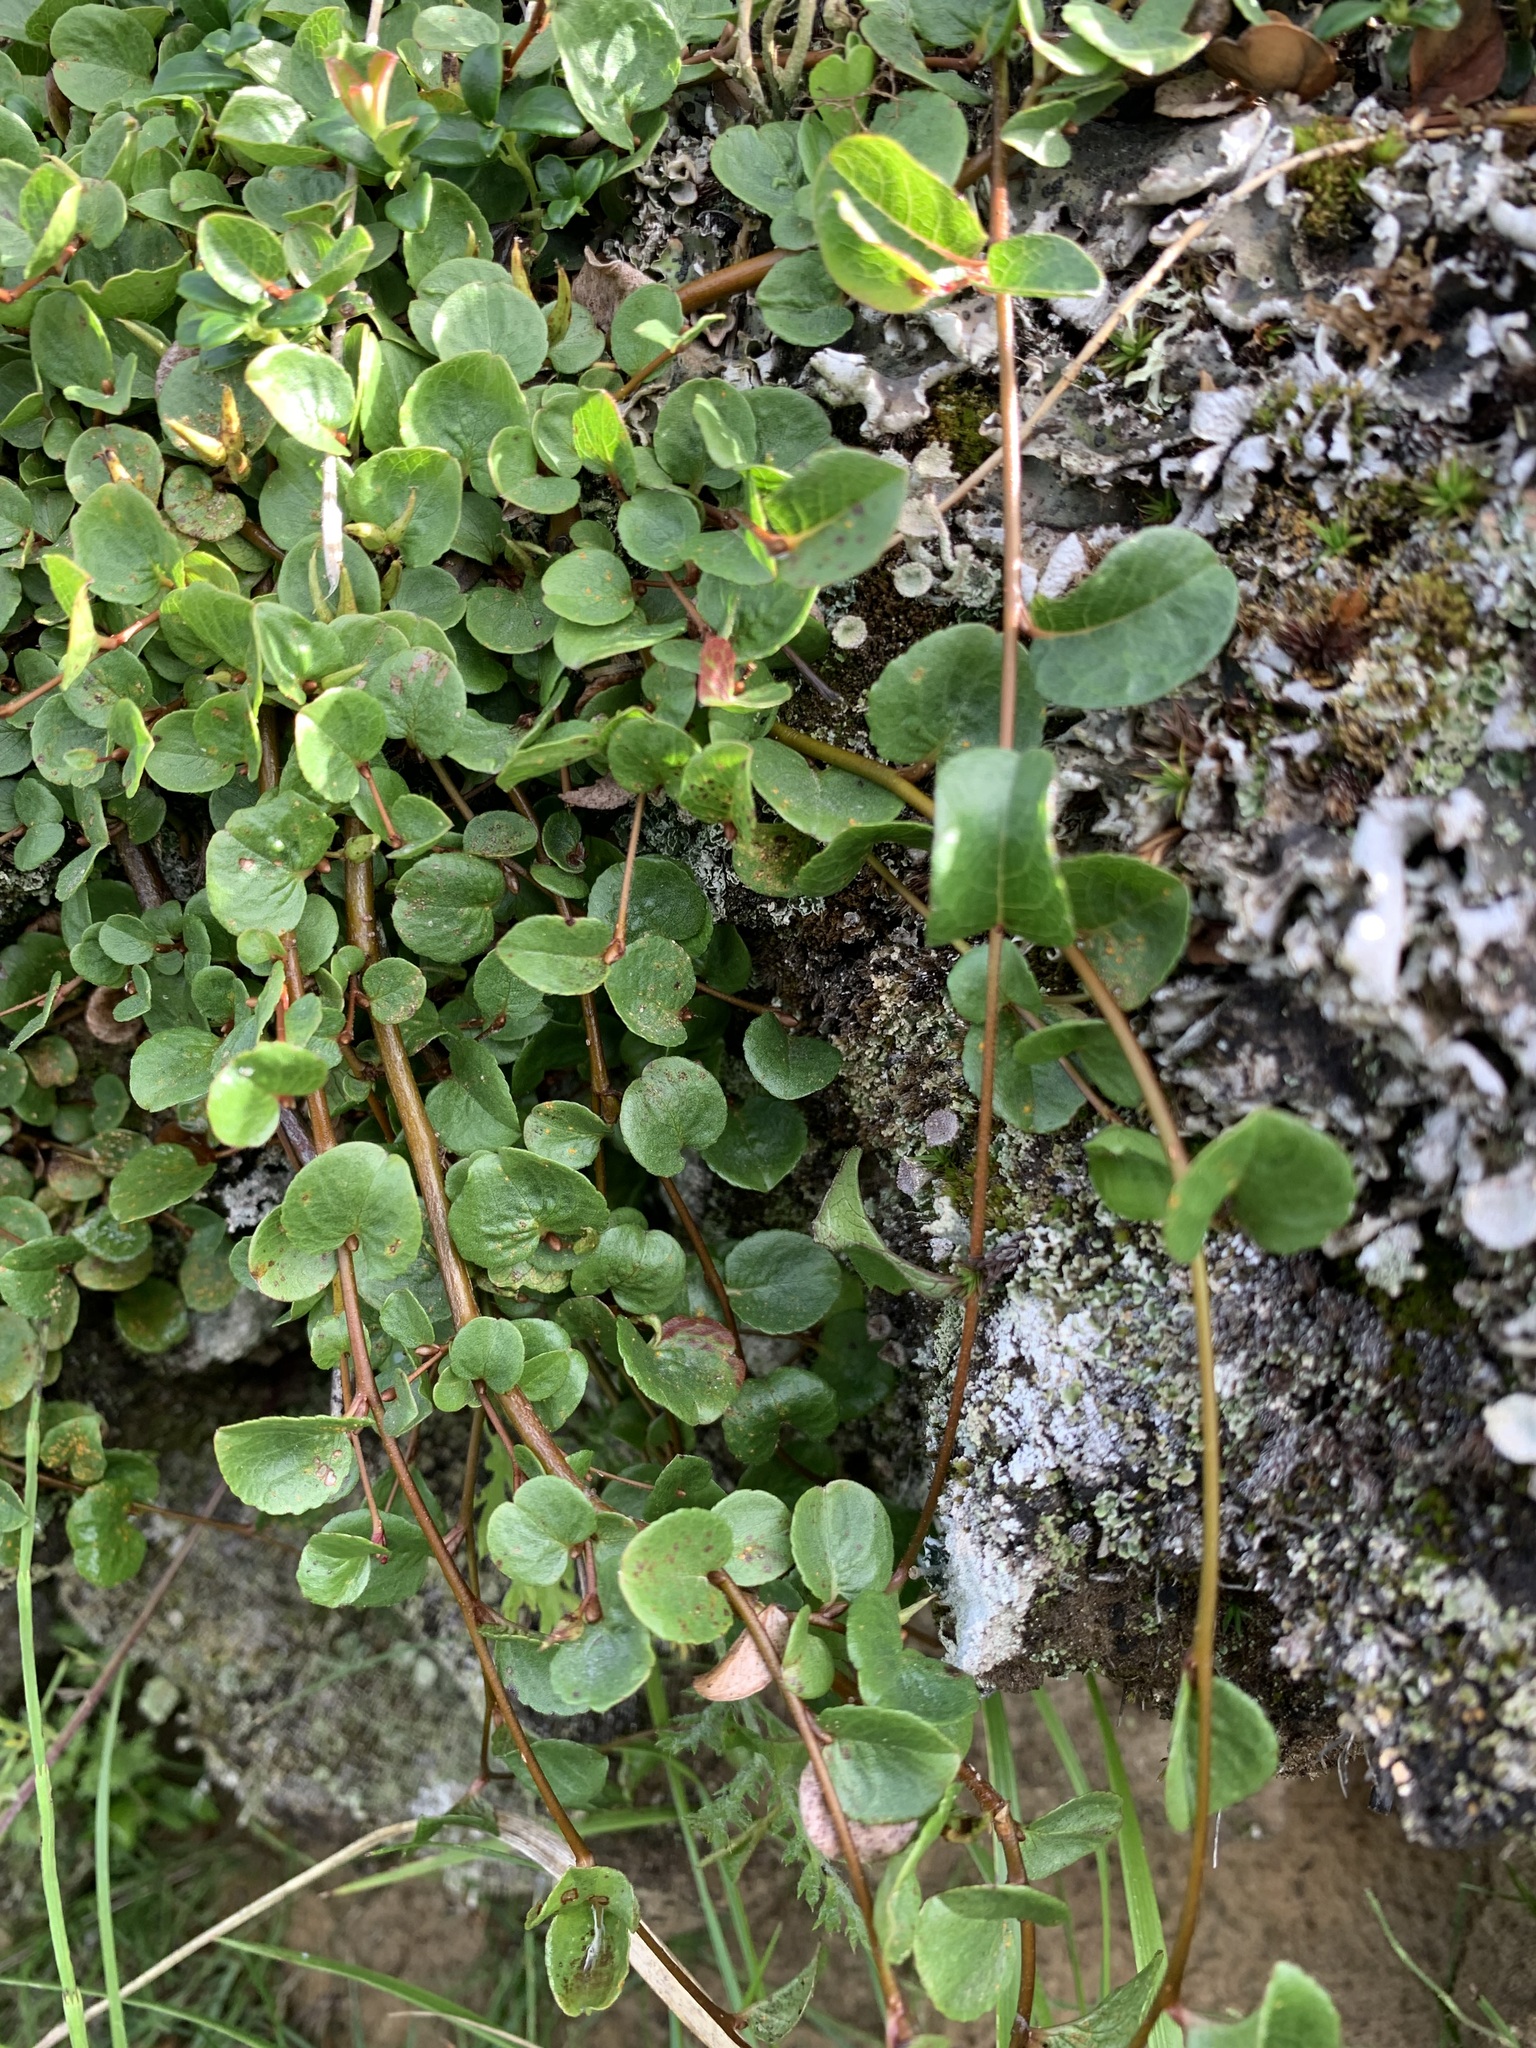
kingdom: Plantae
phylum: Tracheophyta
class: Magnoliopsida
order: Malpighiales
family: Salicaceae
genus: Salix
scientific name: Salix nummularia
